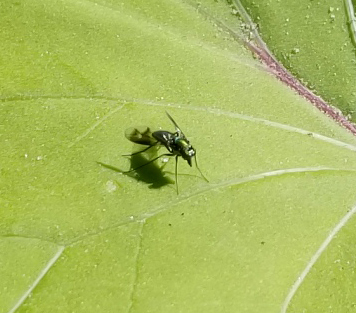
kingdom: Animalia
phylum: Arthropoda
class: Insecta
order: Diptera
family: Dolichopodidae
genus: Condylostylus
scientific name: Condylostylus patibulatus
